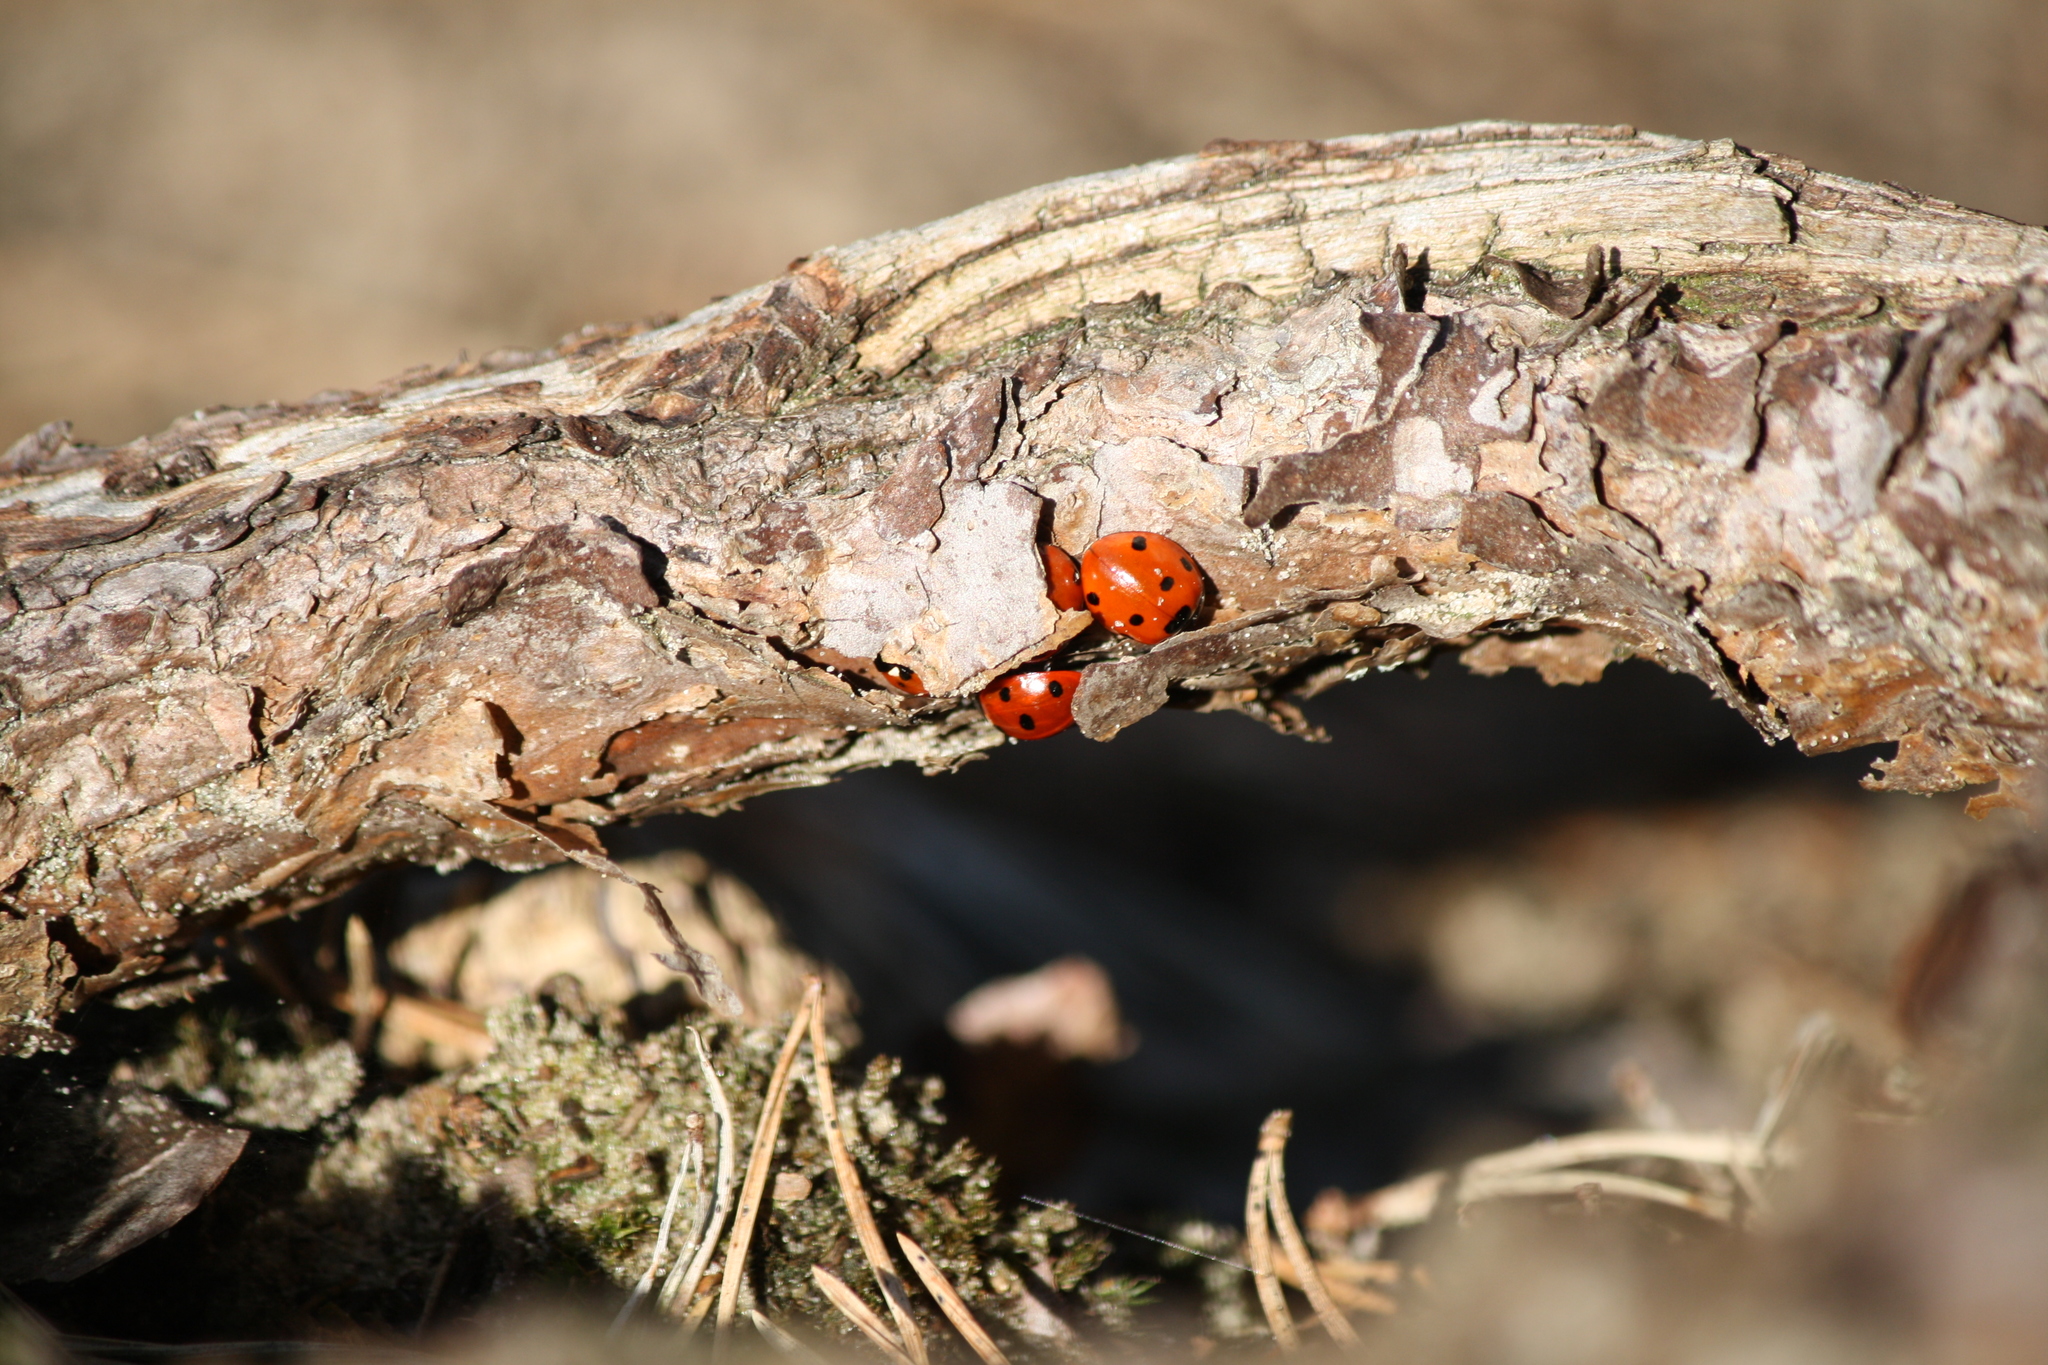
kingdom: Animalia
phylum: Arthropoda
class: Insecta
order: Coleoptera
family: Coccinellidae
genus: Coccinella
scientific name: Coccinella septempunctata
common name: Sevenspotted lady beetle
